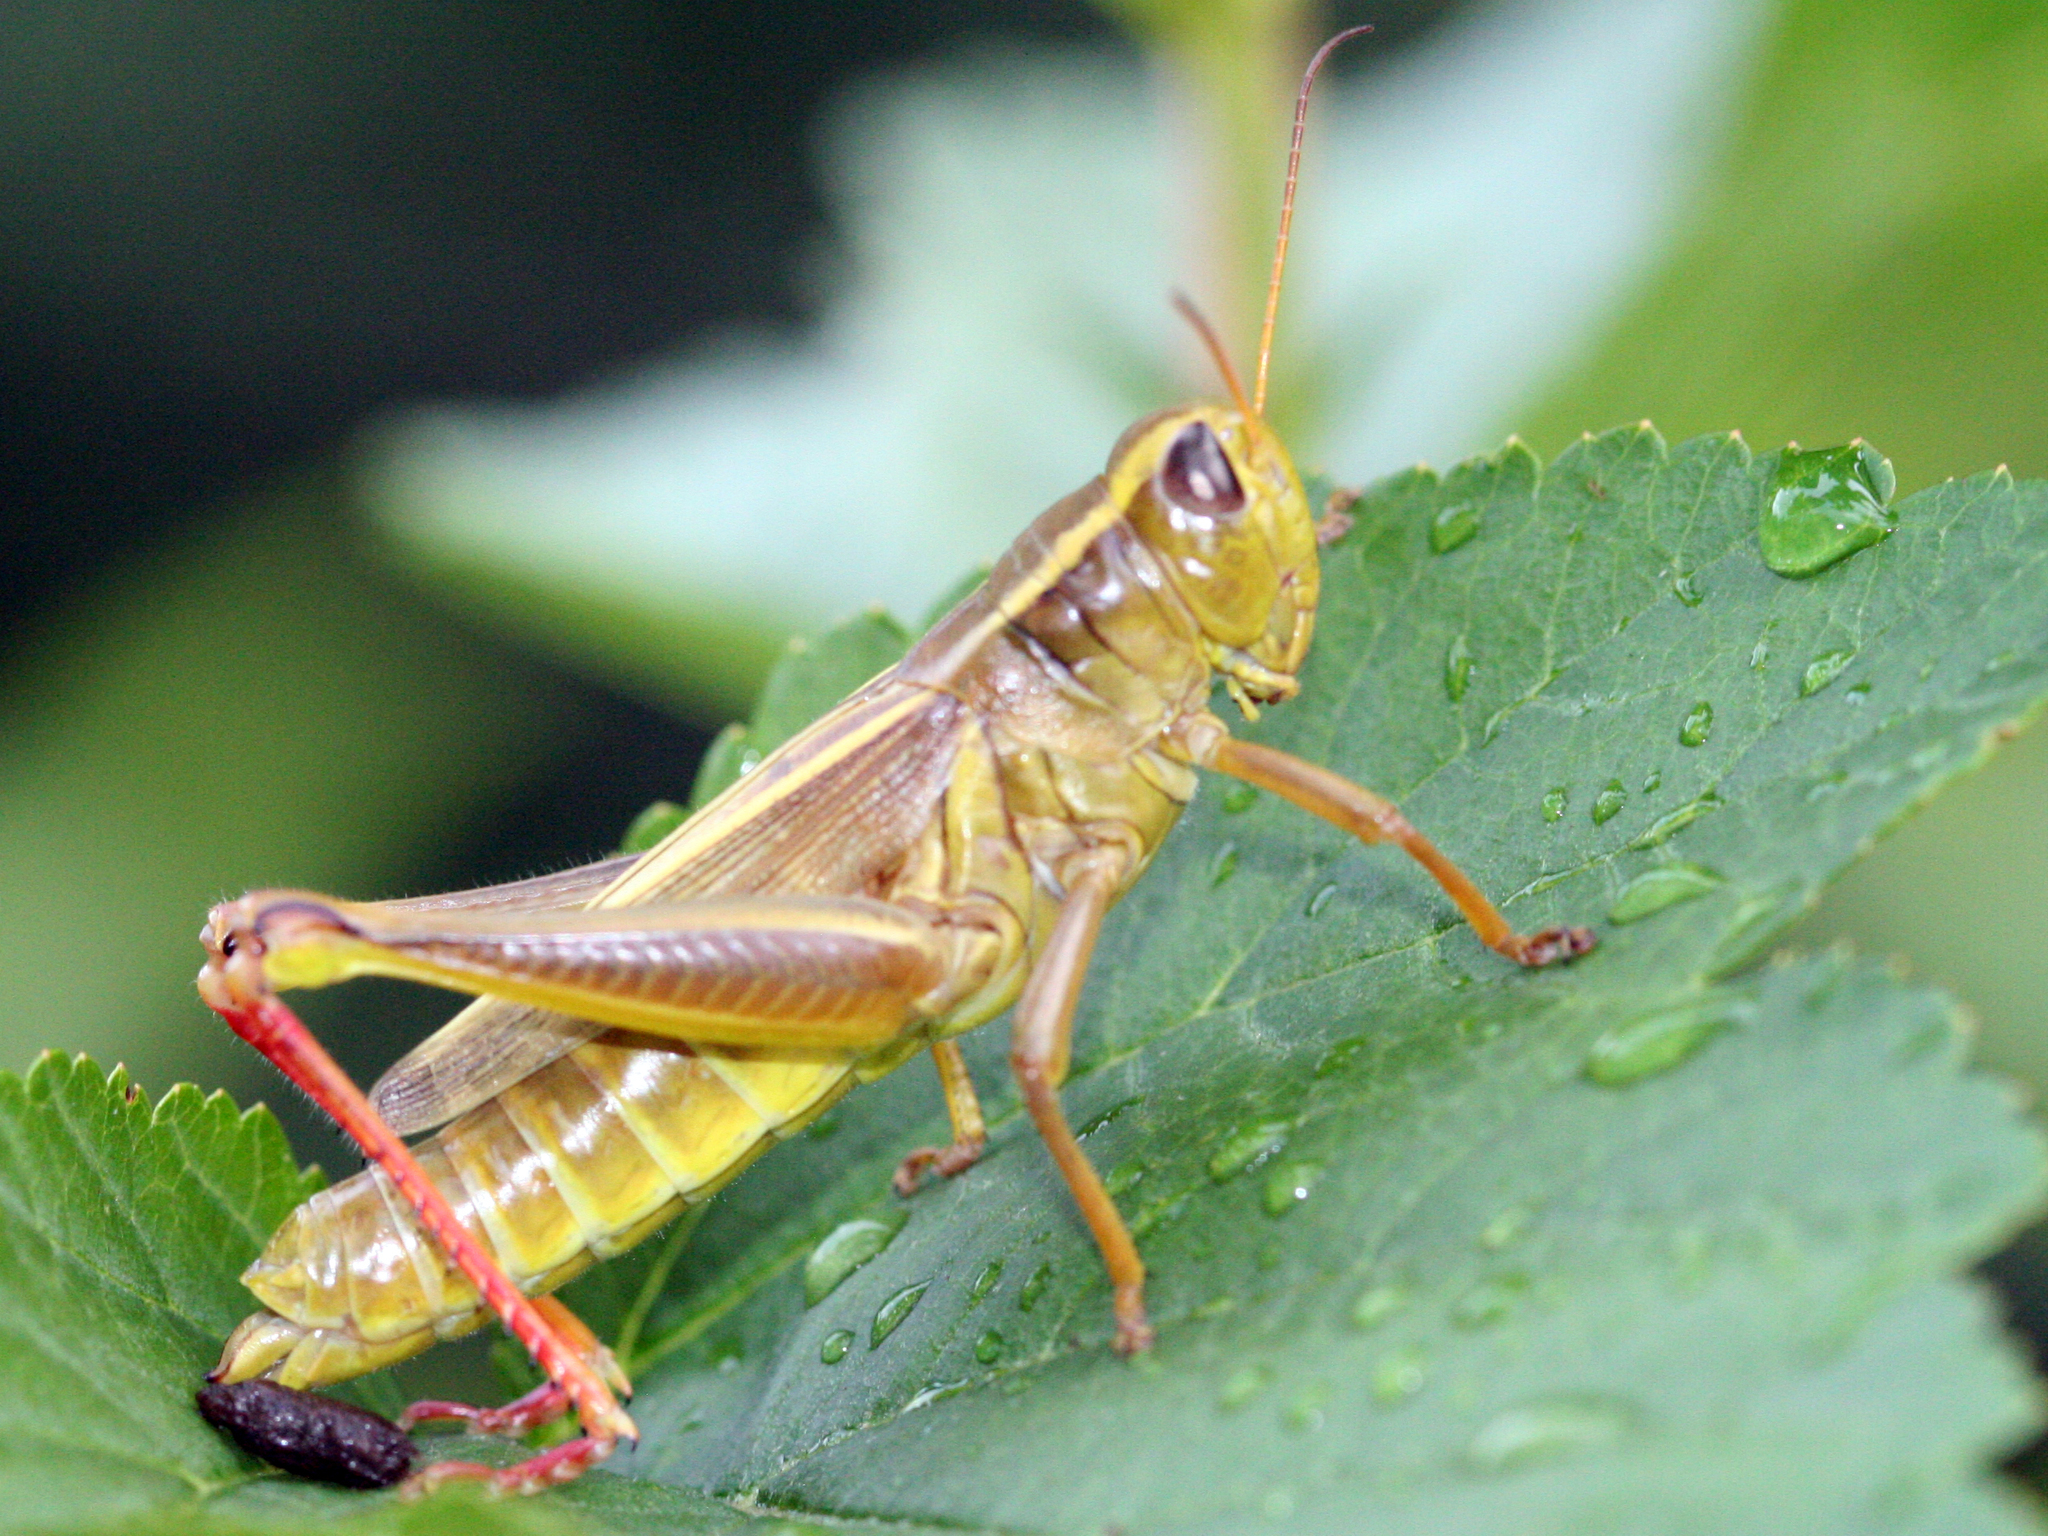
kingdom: Animalia
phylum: Arthropoda
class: Insecta
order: Orthoptera
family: Acrididae
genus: Melanoplus
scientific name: Melanoplus bivittatus
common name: Two-striped grasshopper
